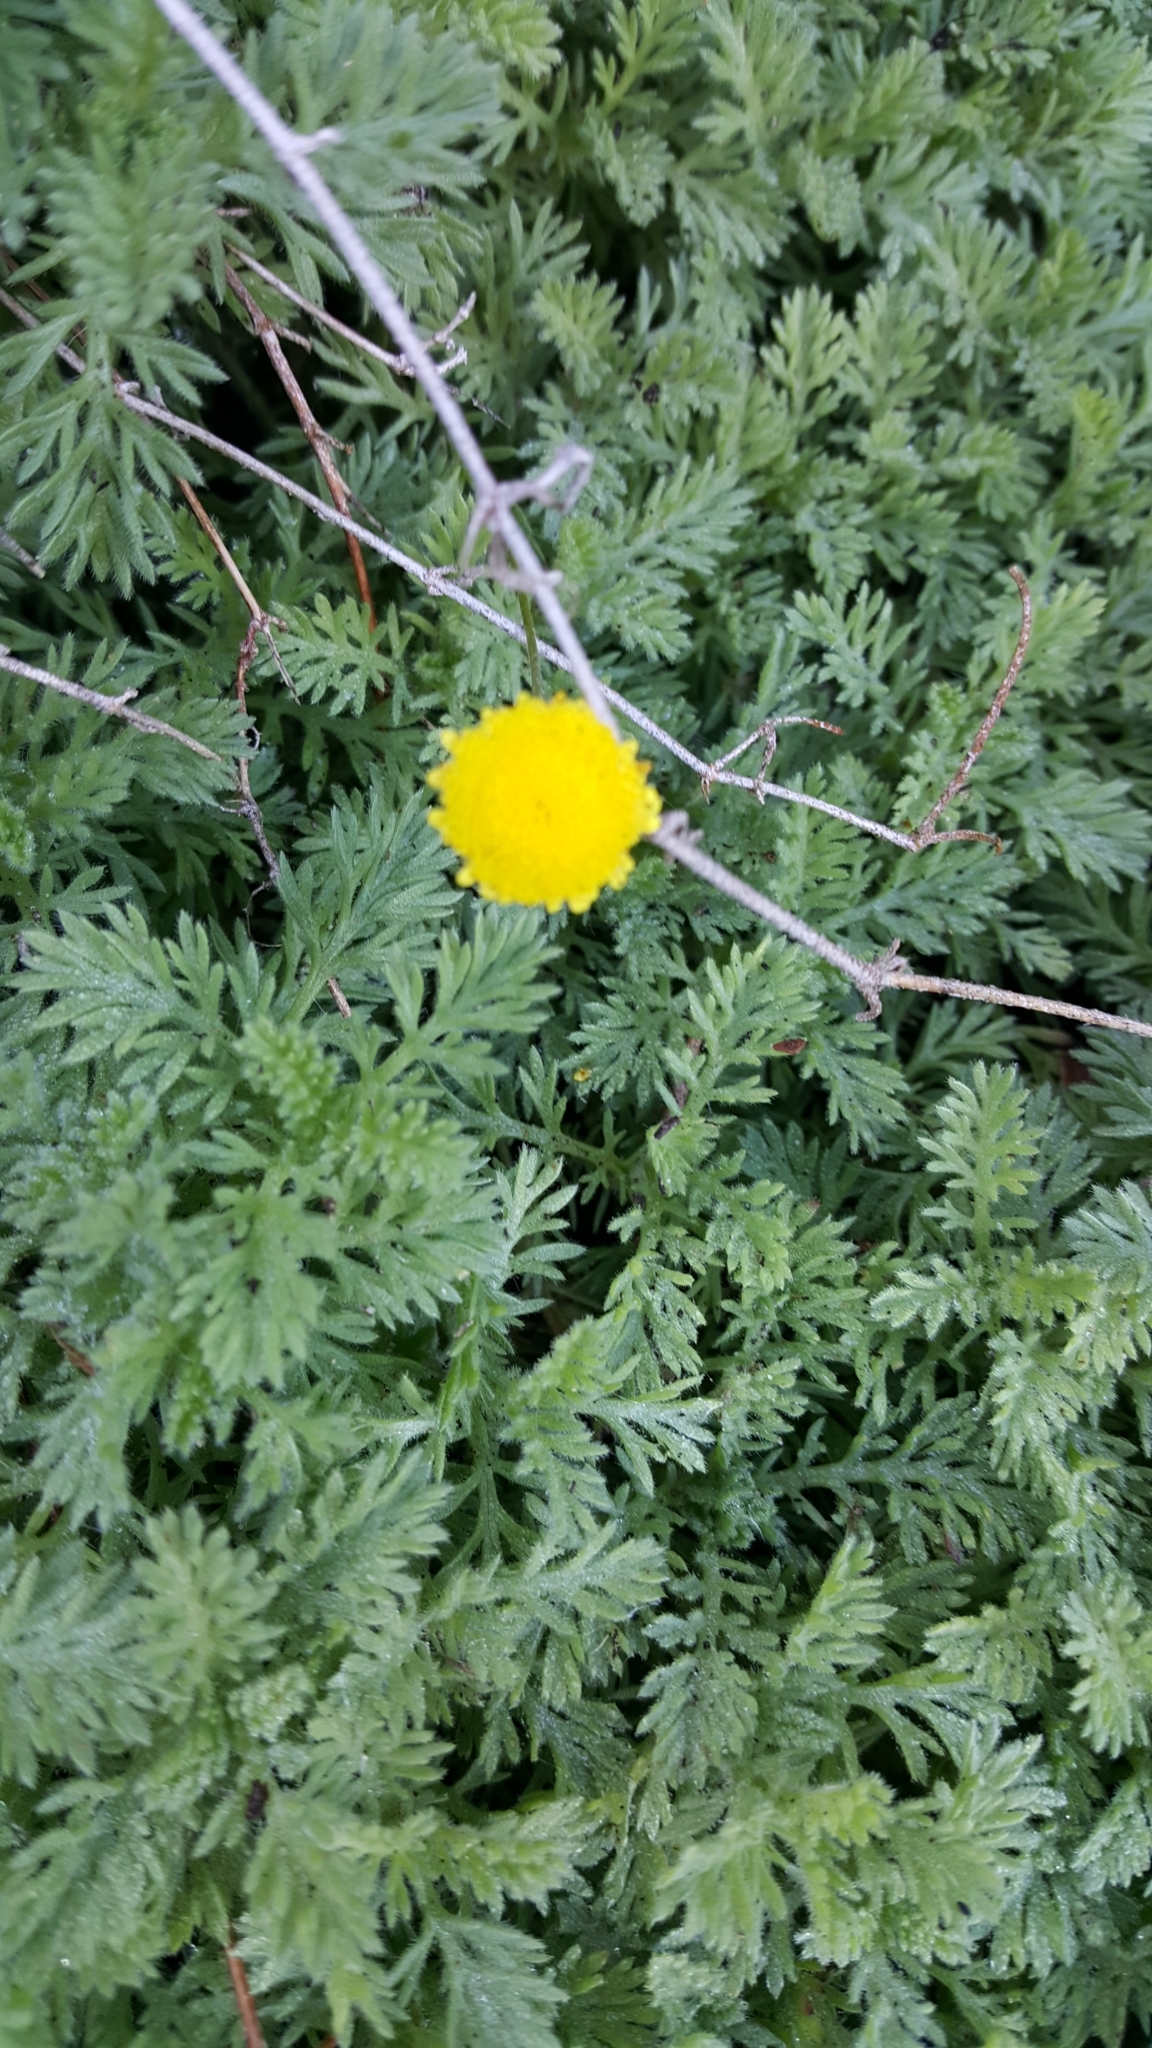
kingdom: Plantae
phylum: Tracheophyta
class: Magnoliopsida
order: Asterales
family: Asteraceae
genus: Cotula
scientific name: Cotula discolor
